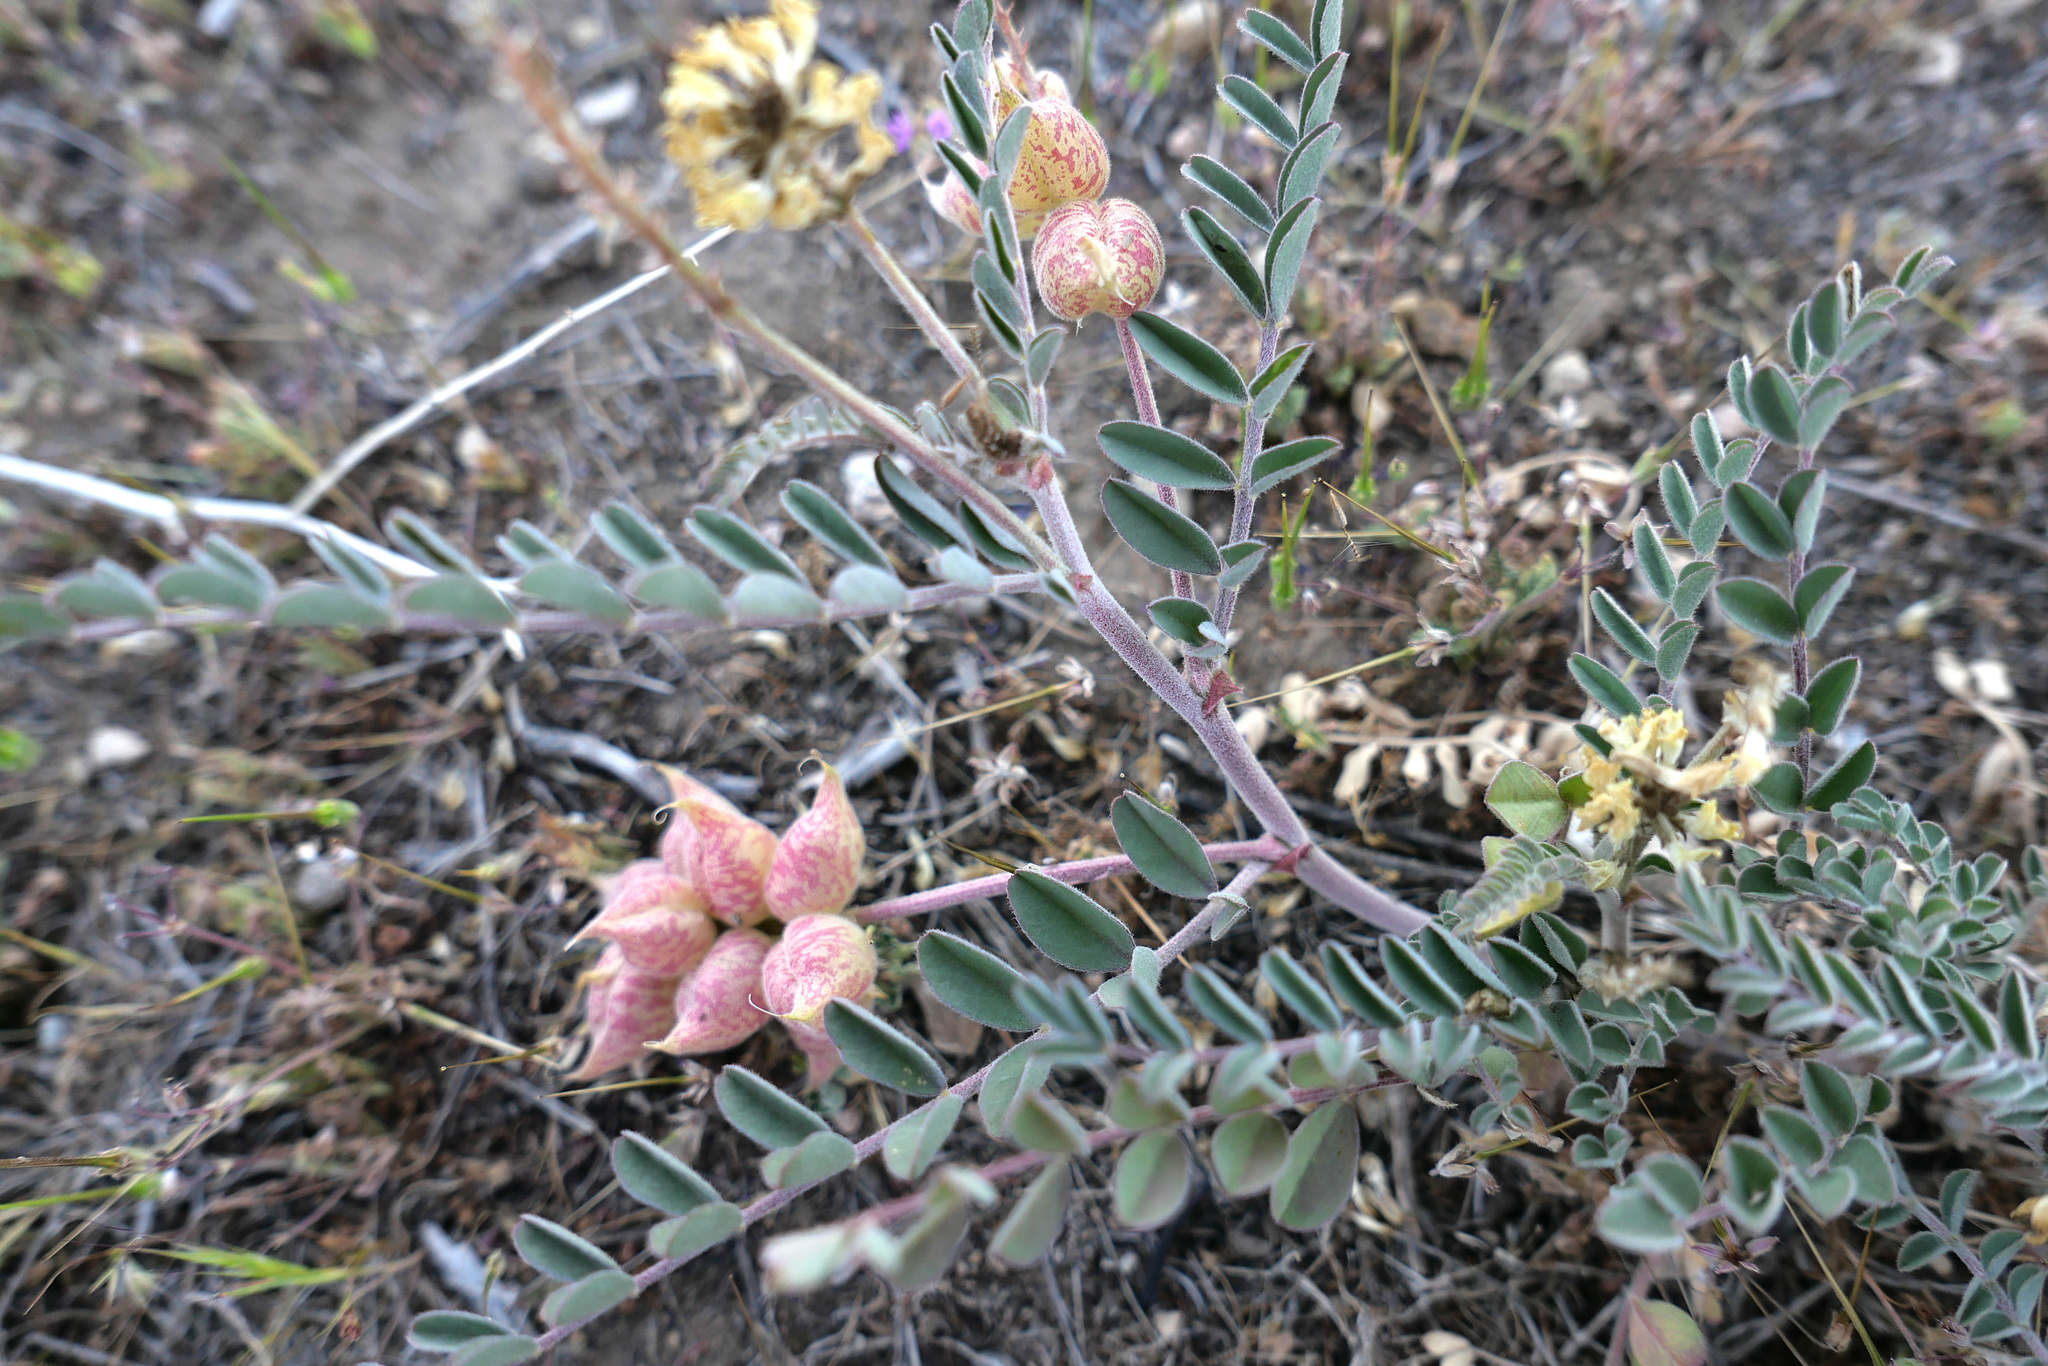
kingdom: Plantae
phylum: Tracheophyta
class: Magnoliopsida
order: Fabales
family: Fabaceae
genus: Astragalus
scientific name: Astragalus lentiginosus
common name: Freckled milkvetch
